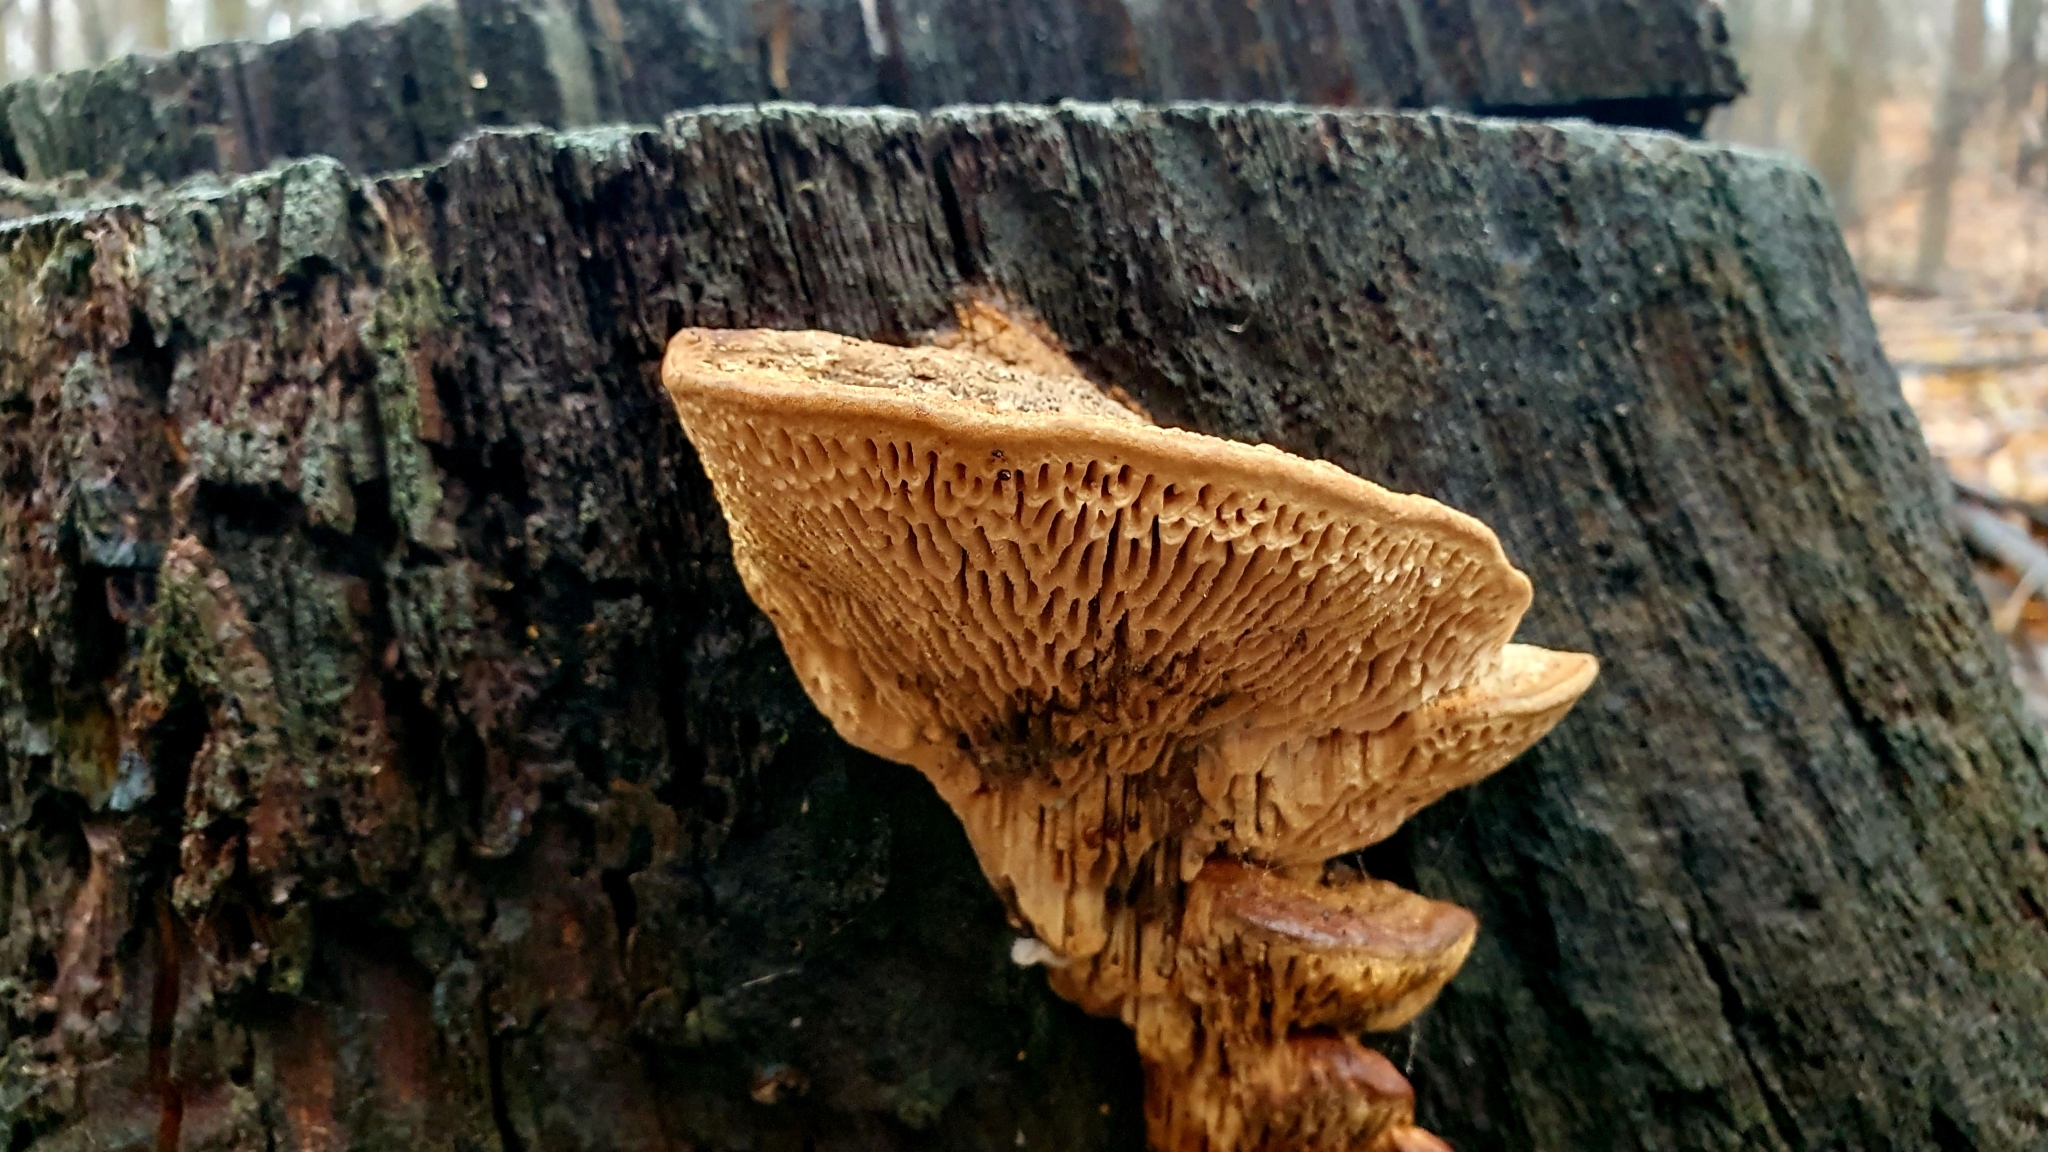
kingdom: Fungi
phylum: Basidiomycota
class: Agaricomycetes
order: Polyporales
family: Fomitopsidaceae
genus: Fomitopsis
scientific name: Fomitopsis
